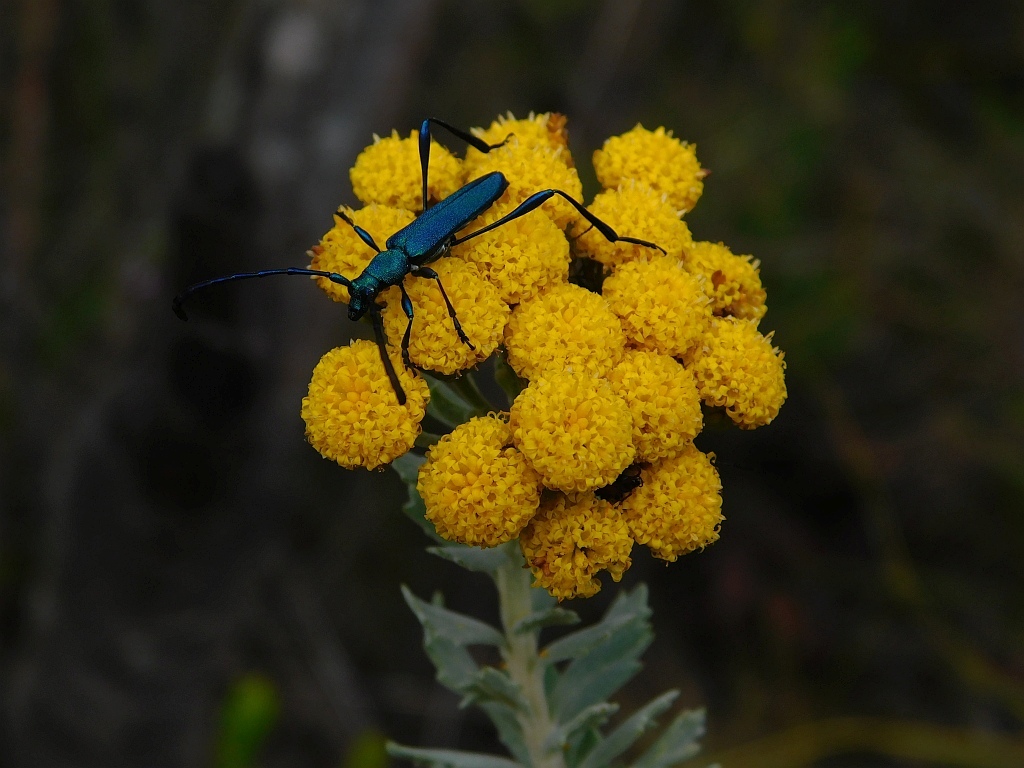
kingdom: Plantae
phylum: Tracheophyta
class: Magnoliopsida
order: Asterales
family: Asteraceae
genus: Athanasia
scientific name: Athanasia trifurcata
